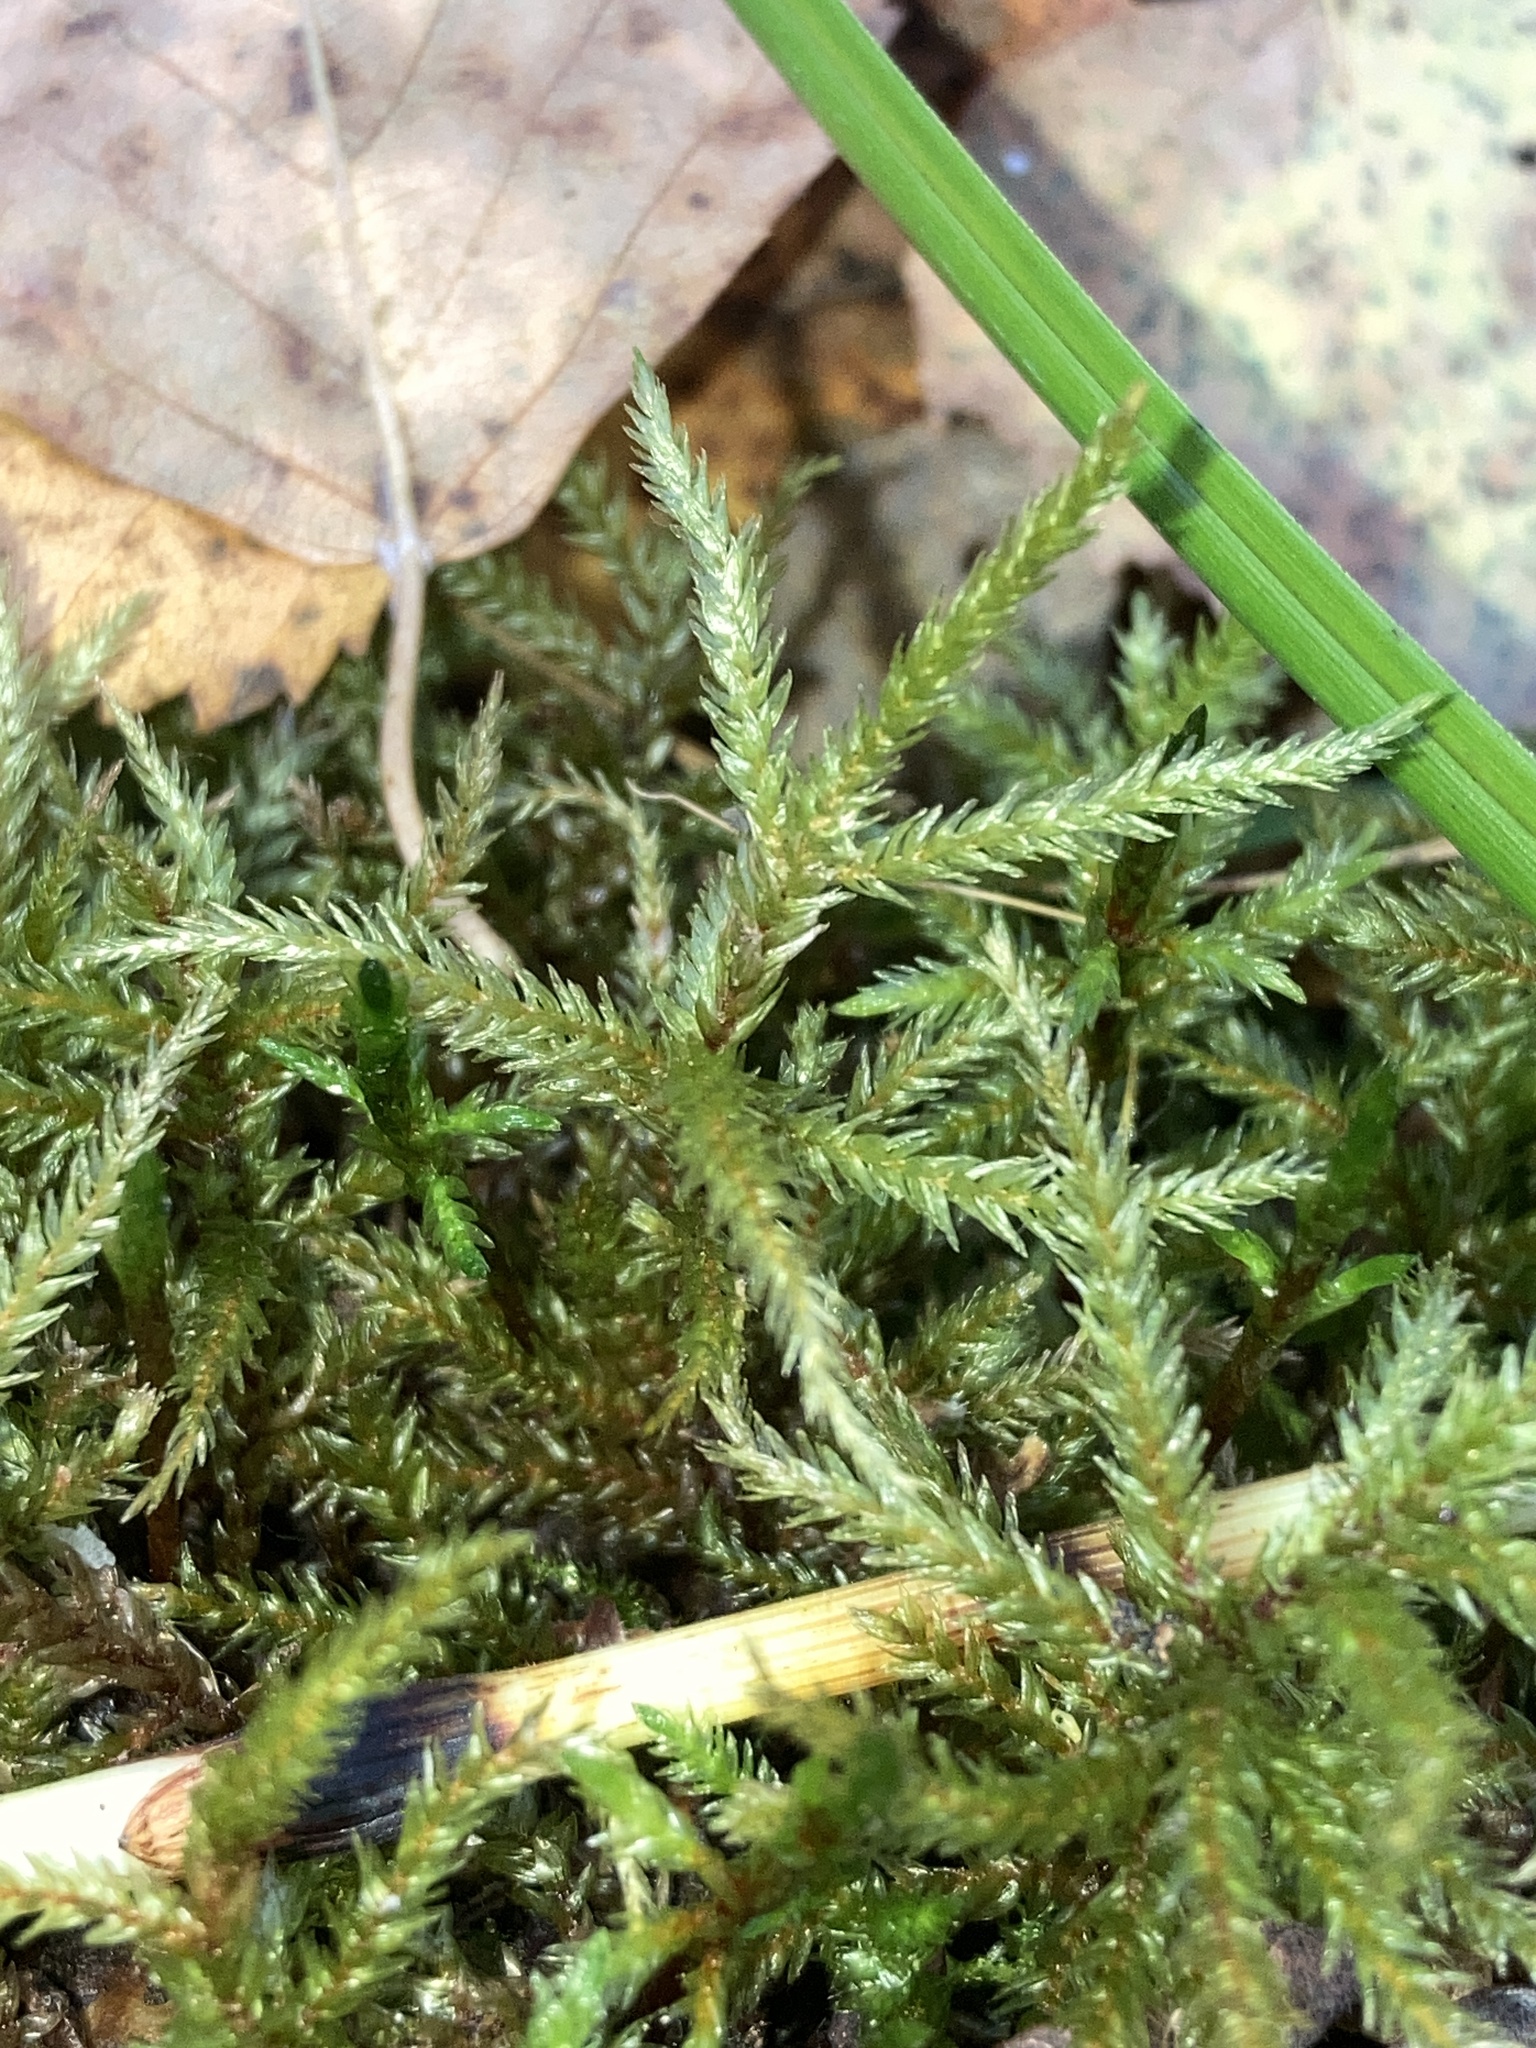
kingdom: Plantae
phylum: Bryophyta
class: Bryopsida
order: Hypnales
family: Climaciaceae
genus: Climacium
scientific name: Climacium dendroides
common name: Northern tree moss
